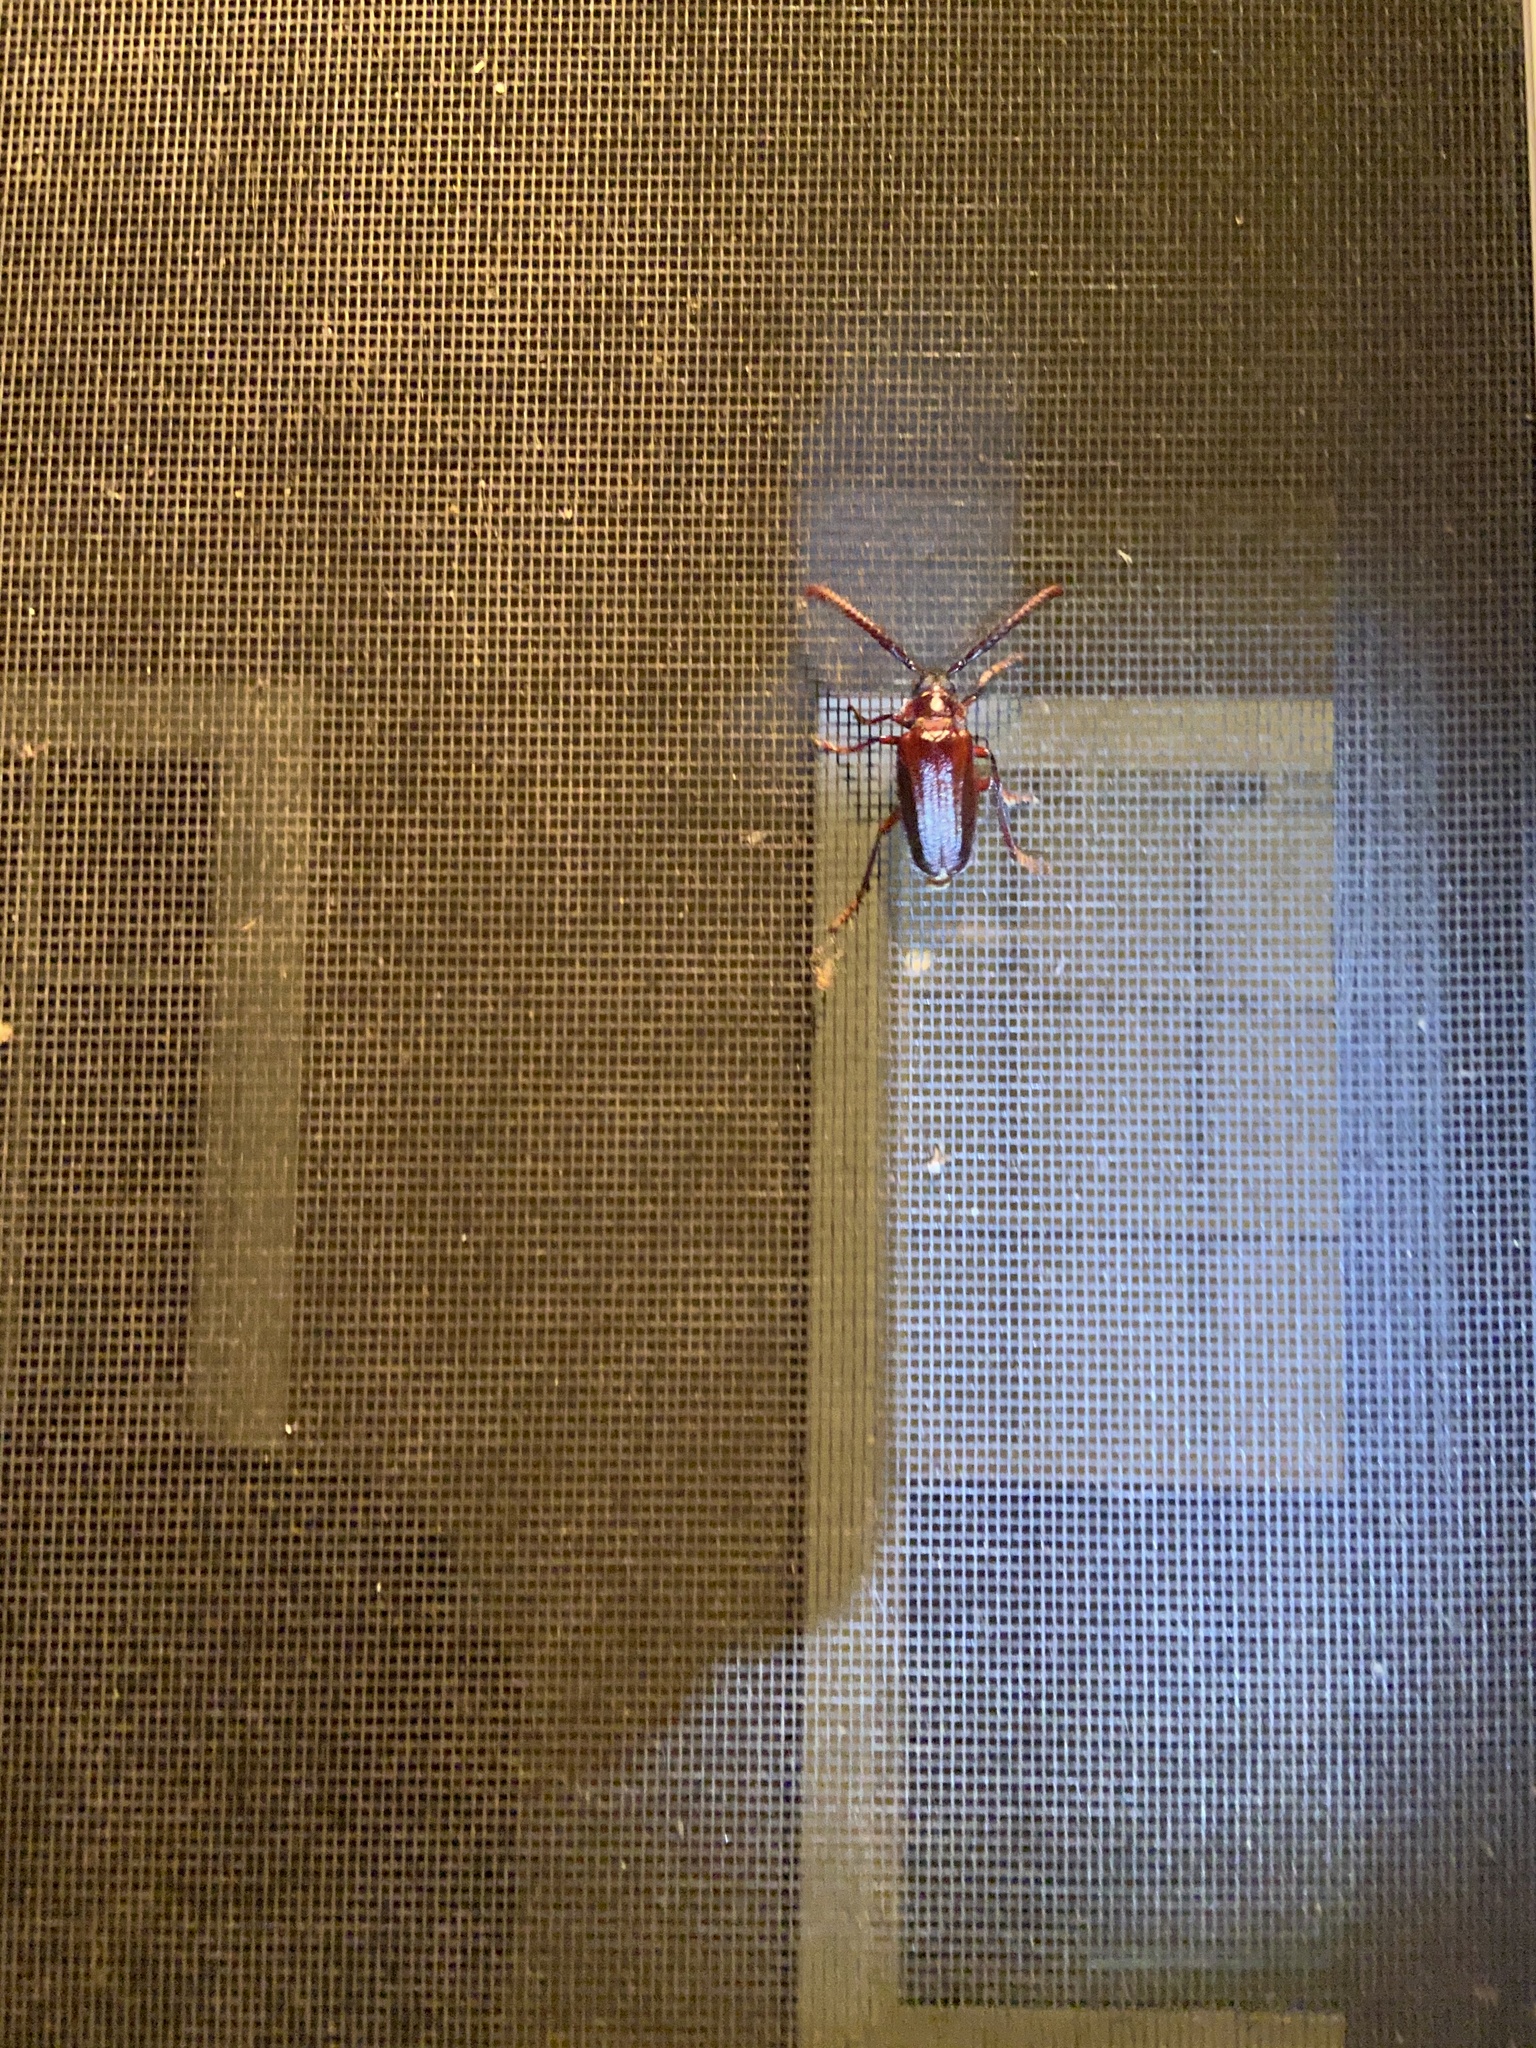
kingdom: Animalia
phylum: Arthropoda
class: Insecta
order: Coleoptera
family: Cerambycidae
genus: Prionus
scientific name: Prionus imbricornis
